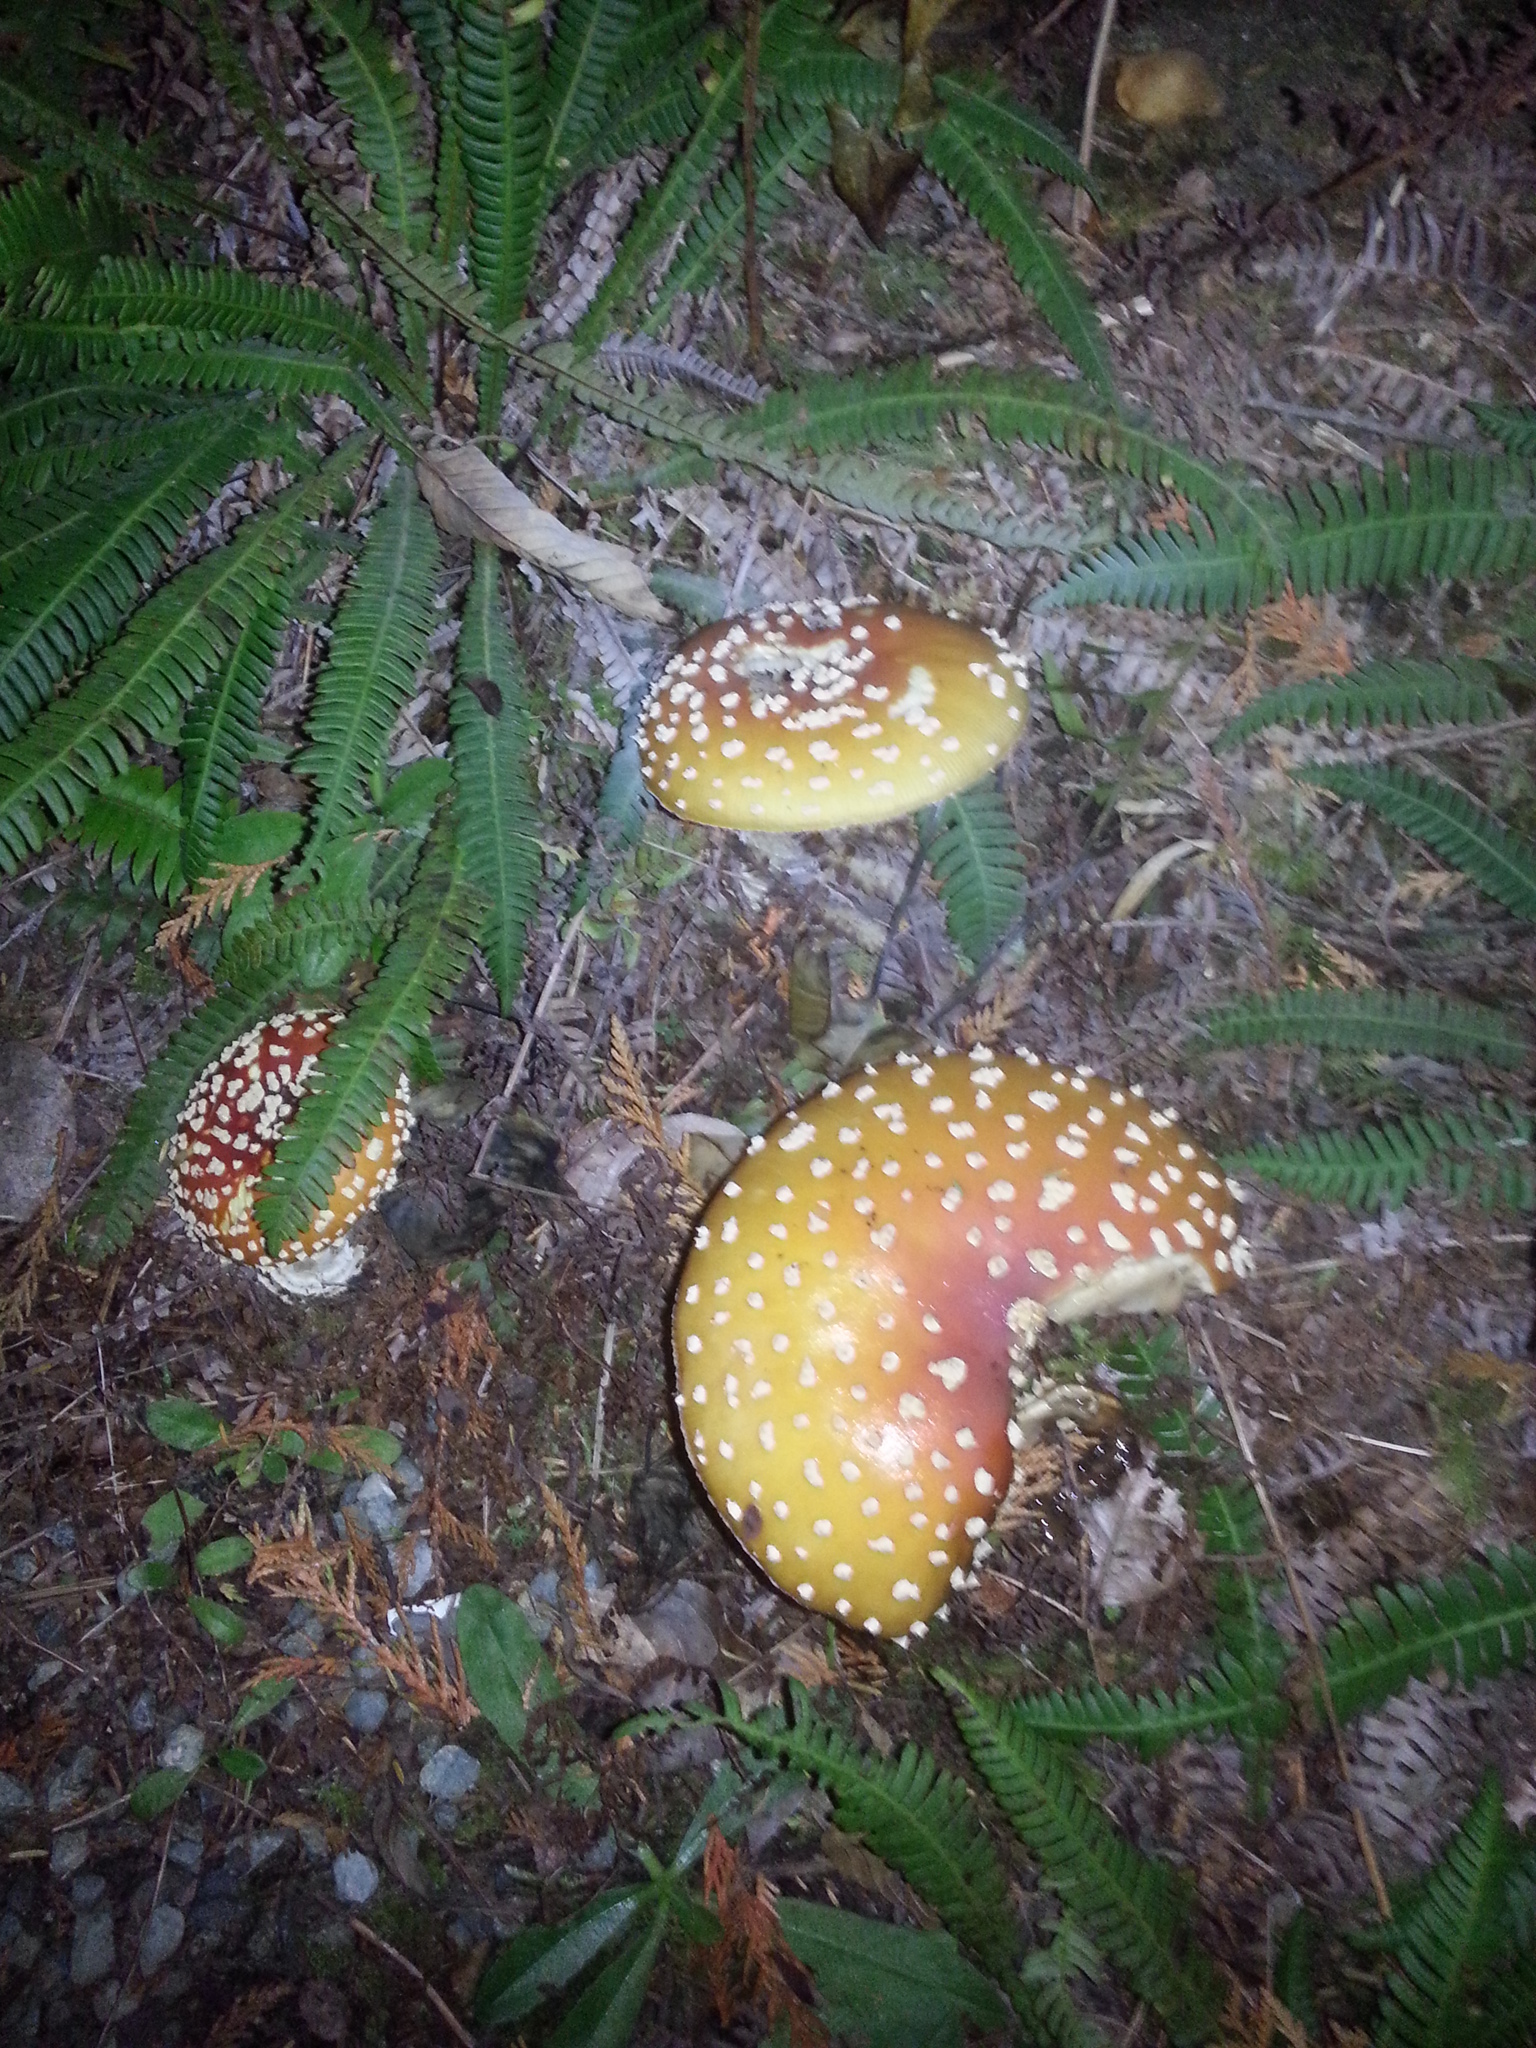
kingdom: Fungi
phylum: Basidiomycota
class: Agaricomycetes
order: Agaricales
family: Amanitaceae
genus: Amanita
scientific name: Amanita muscaria
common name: Fly agaric
